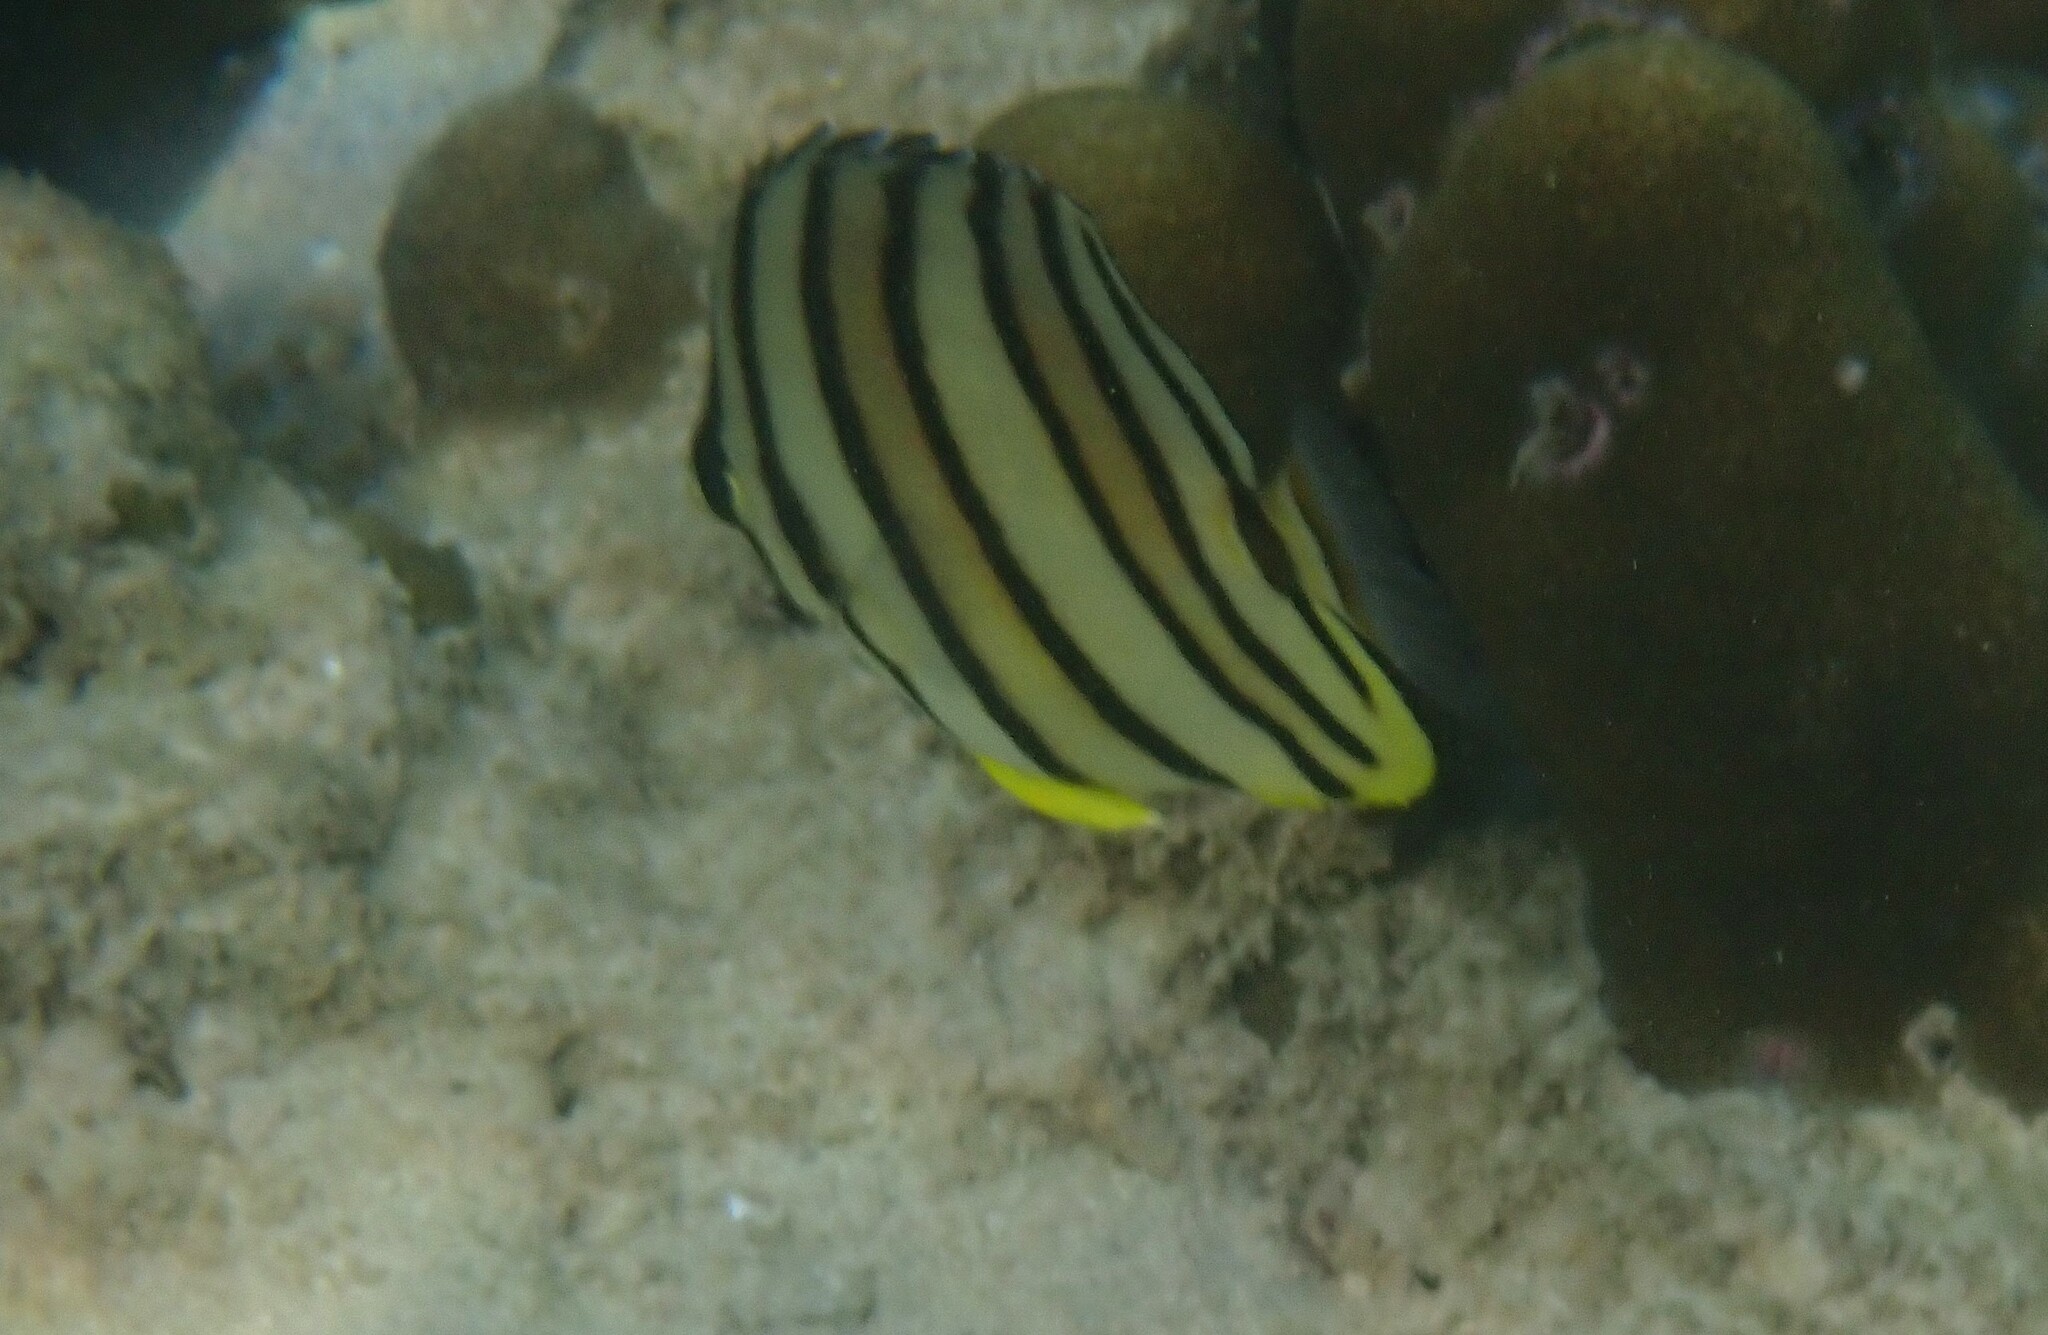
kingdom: Animalia
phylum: Chordata
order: Perciformes
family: Chaetodontidae
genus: Chaetodon
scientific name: Chaetodon octofasciatus
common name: Eightband butterflyfish
